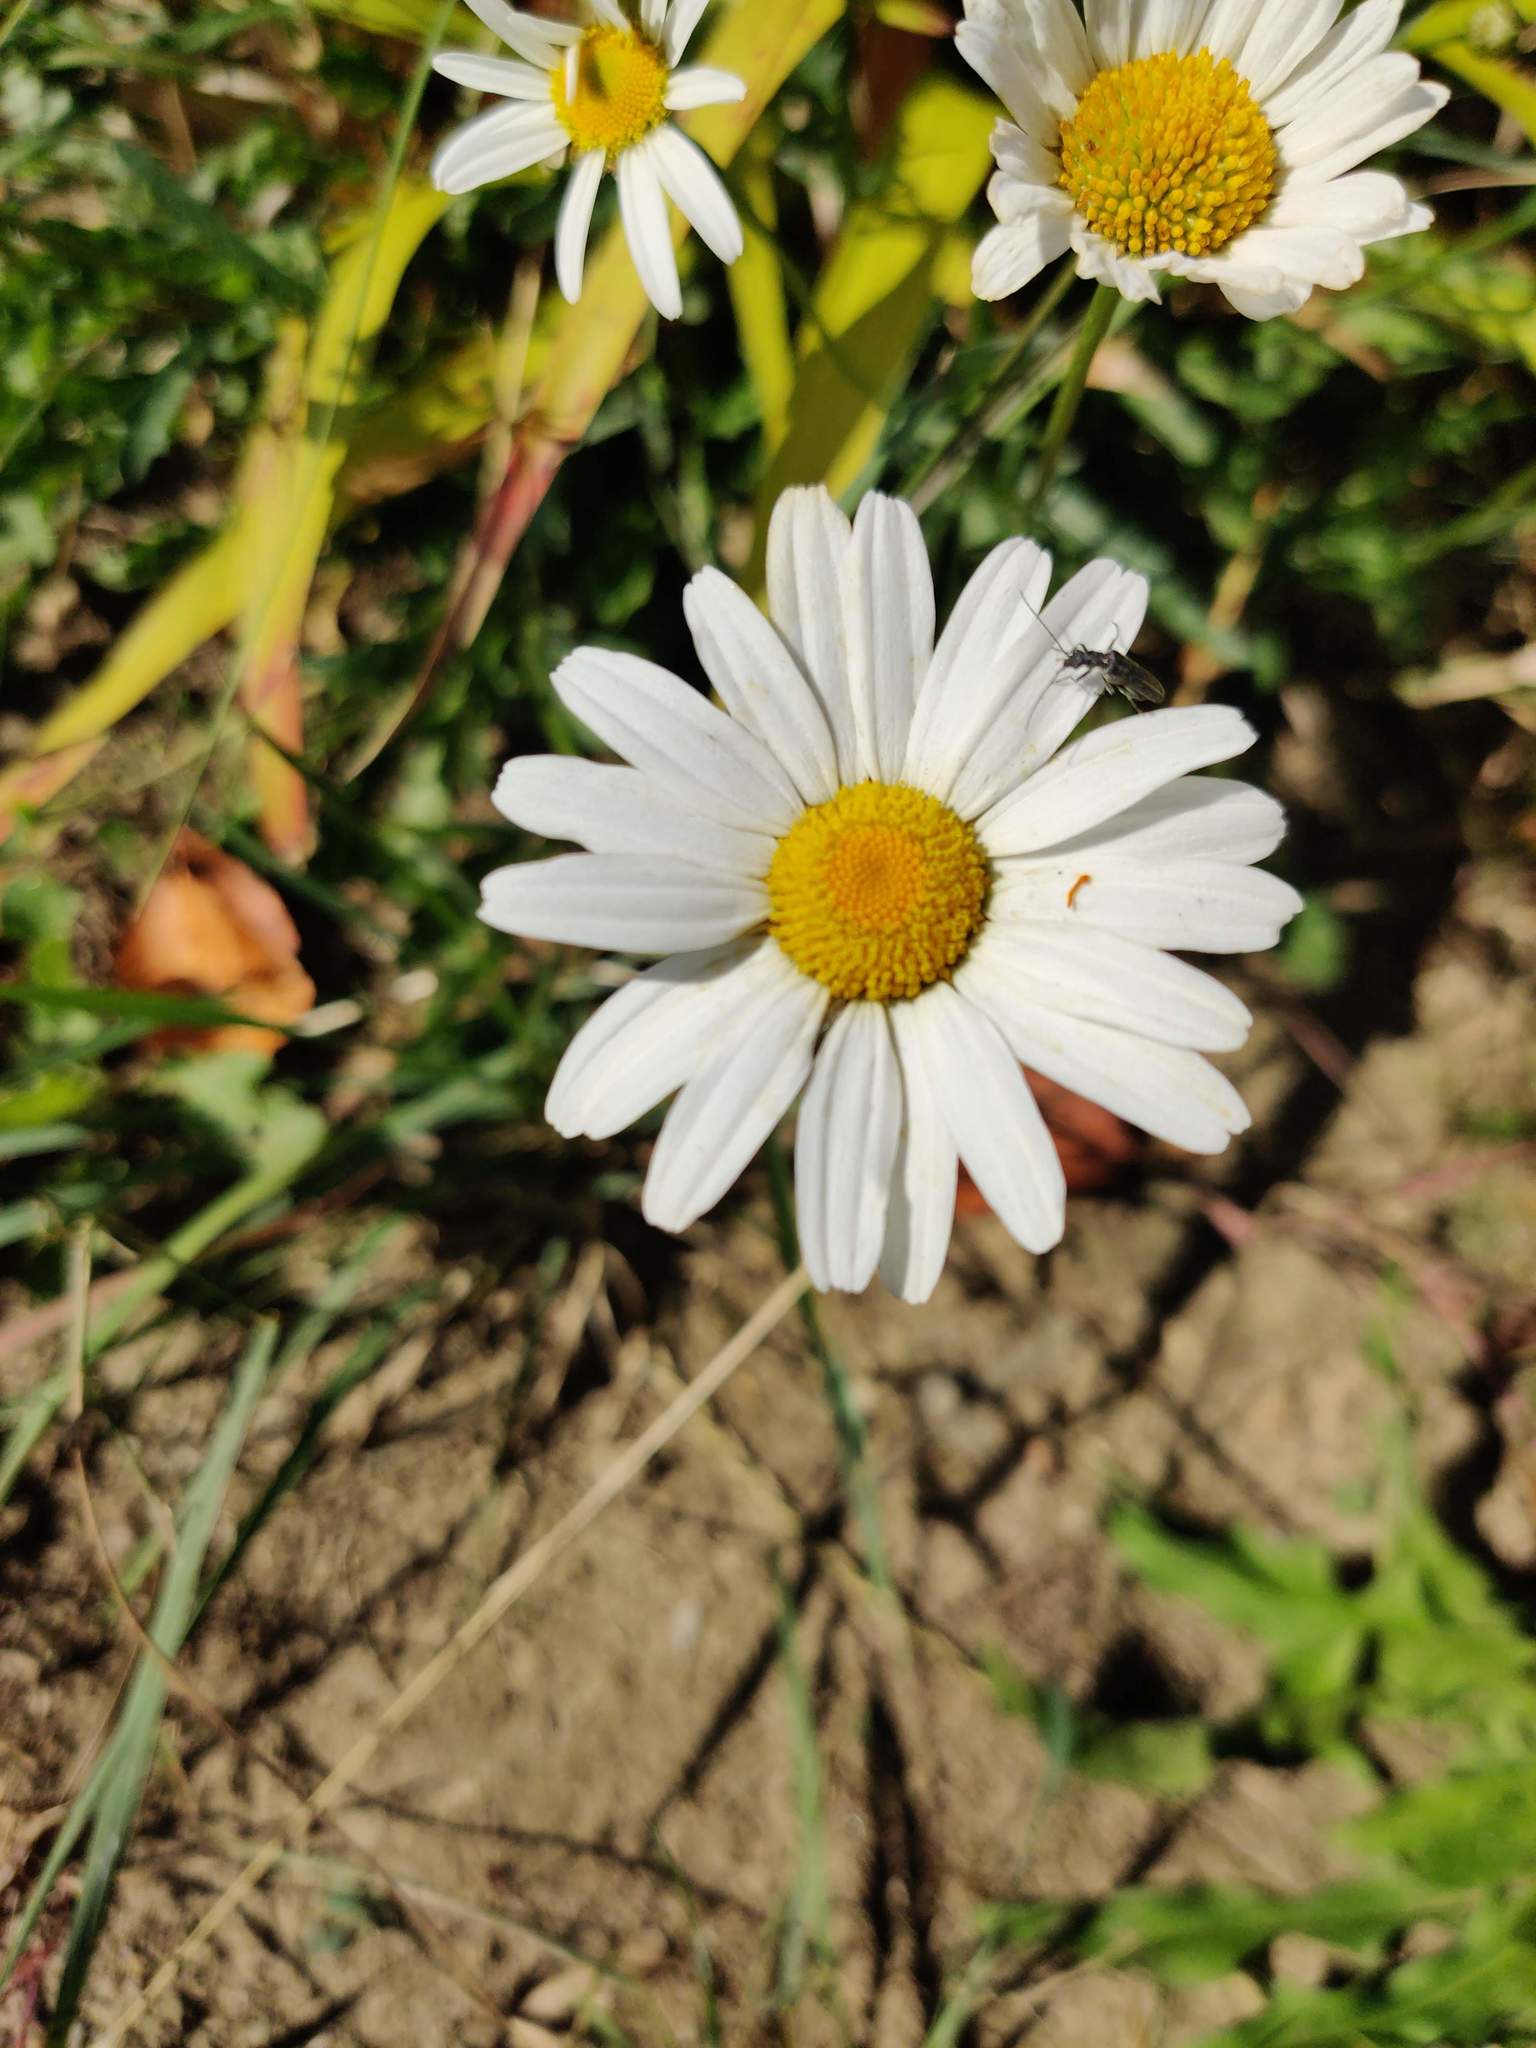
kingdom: Plantae
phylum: Tracheophyta
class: Magnoliopsida
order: Asterales
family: Asteraceae
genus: Leucanthemum
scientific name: Leucanthemum vulgare
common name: Oxeye daisy
